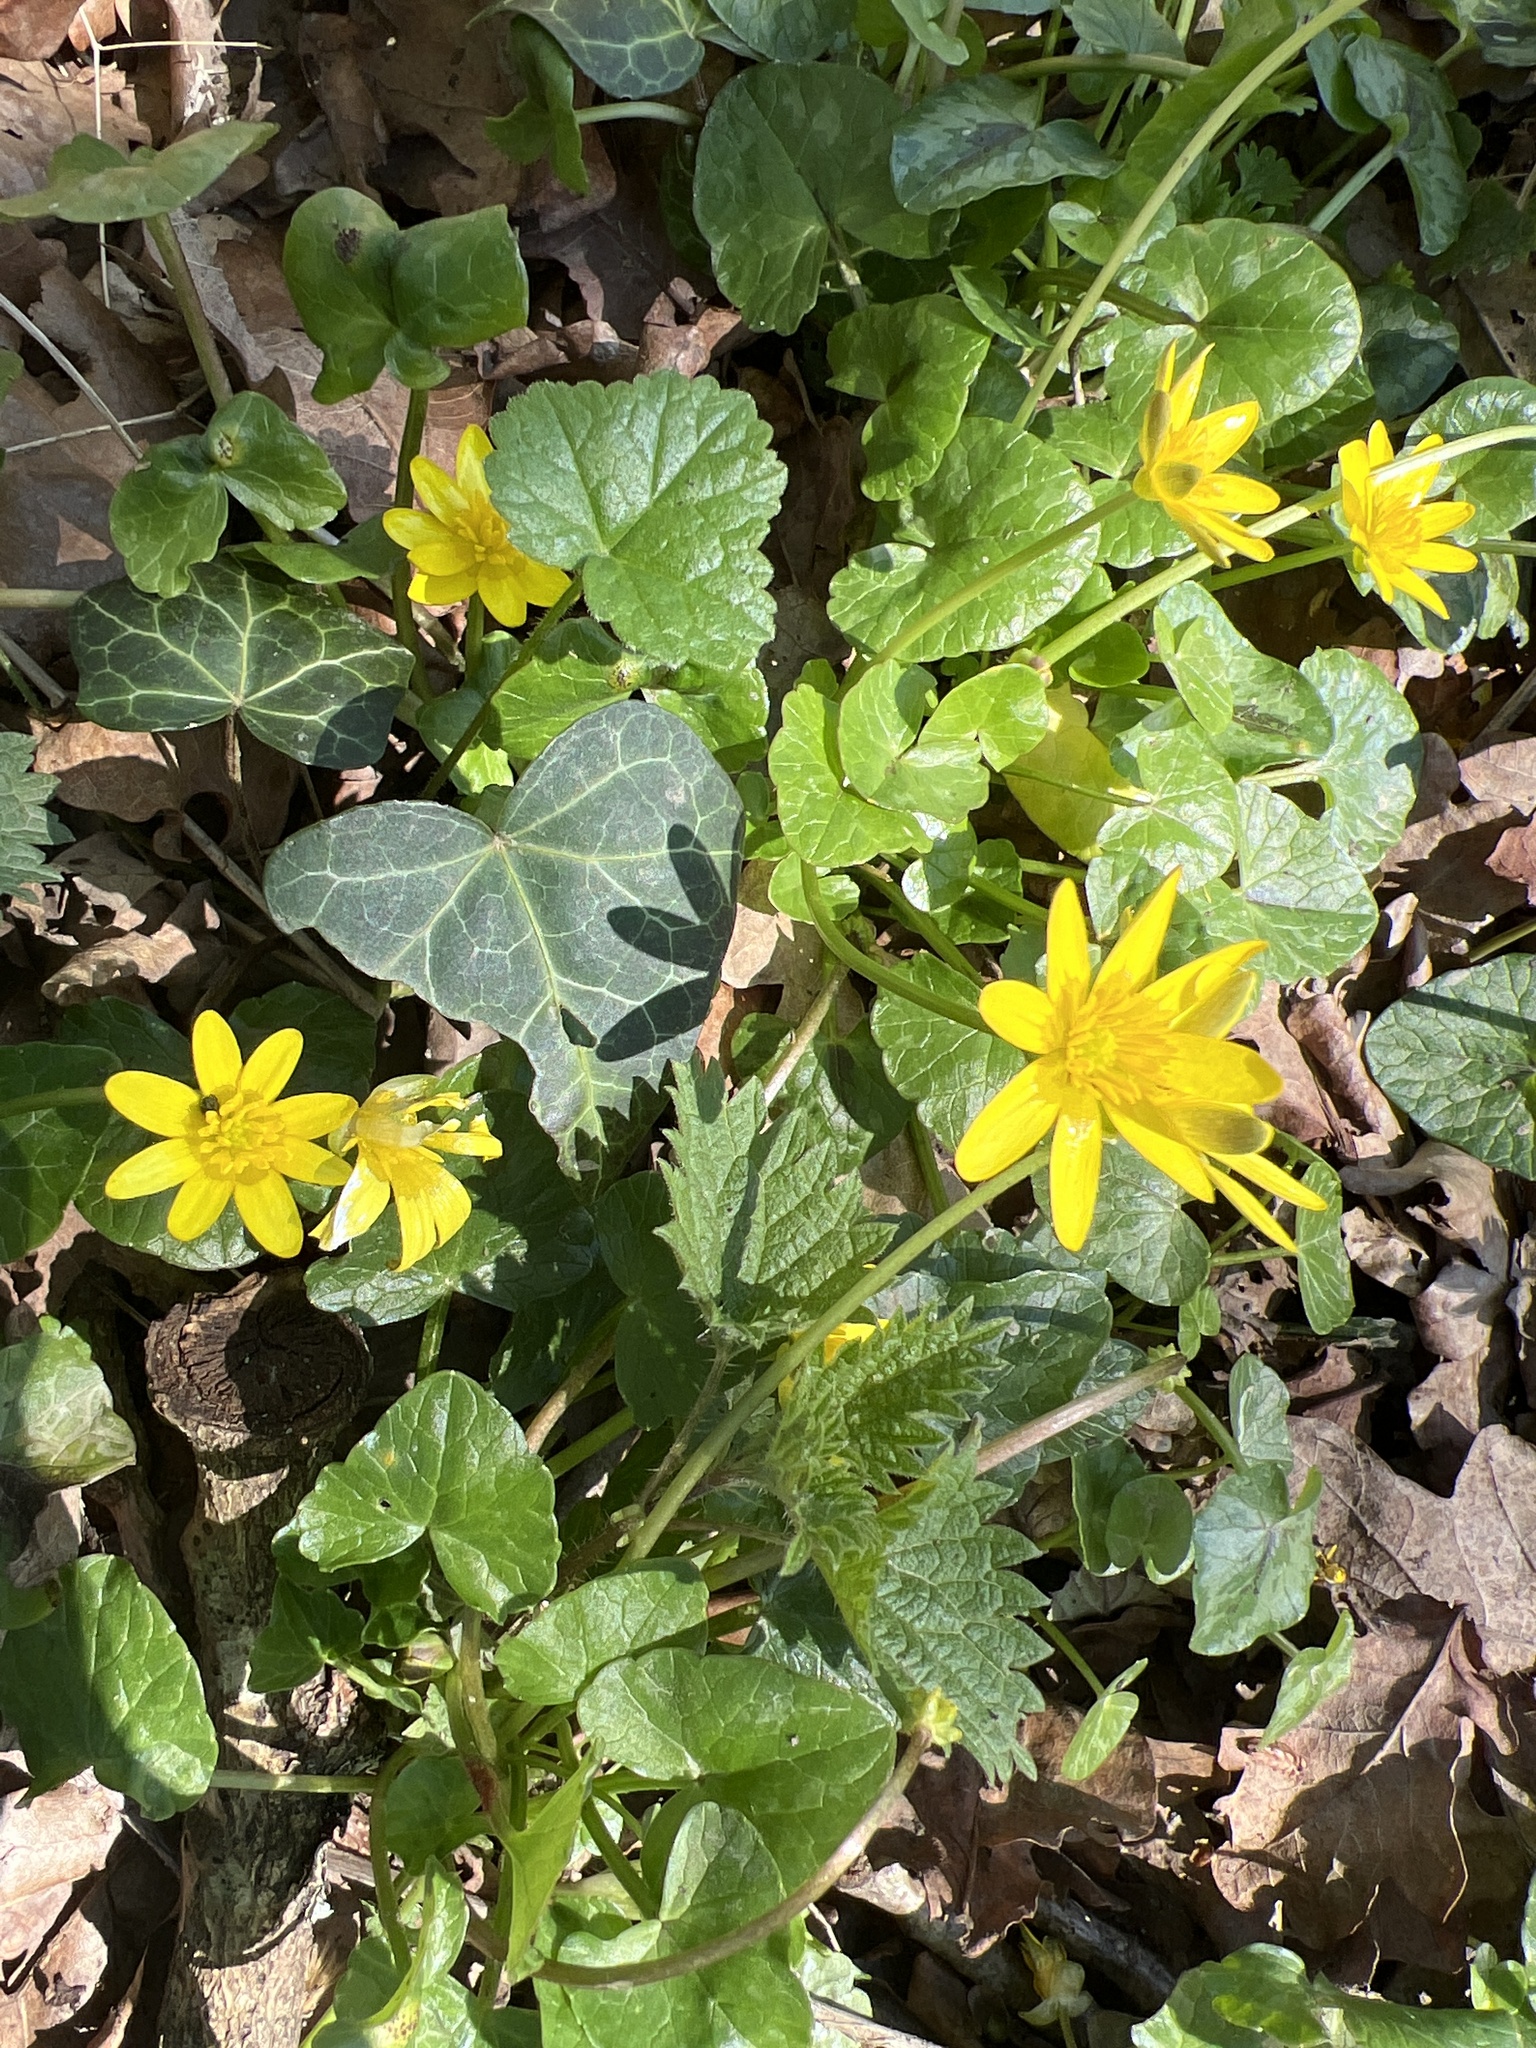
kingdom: Plantae
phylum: Tracheophyta
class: Magnoliopsida
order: Ranunculales
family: Ranunculaceae
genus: Ficaria
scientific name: Ficaria verna
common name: Lesser celandine
